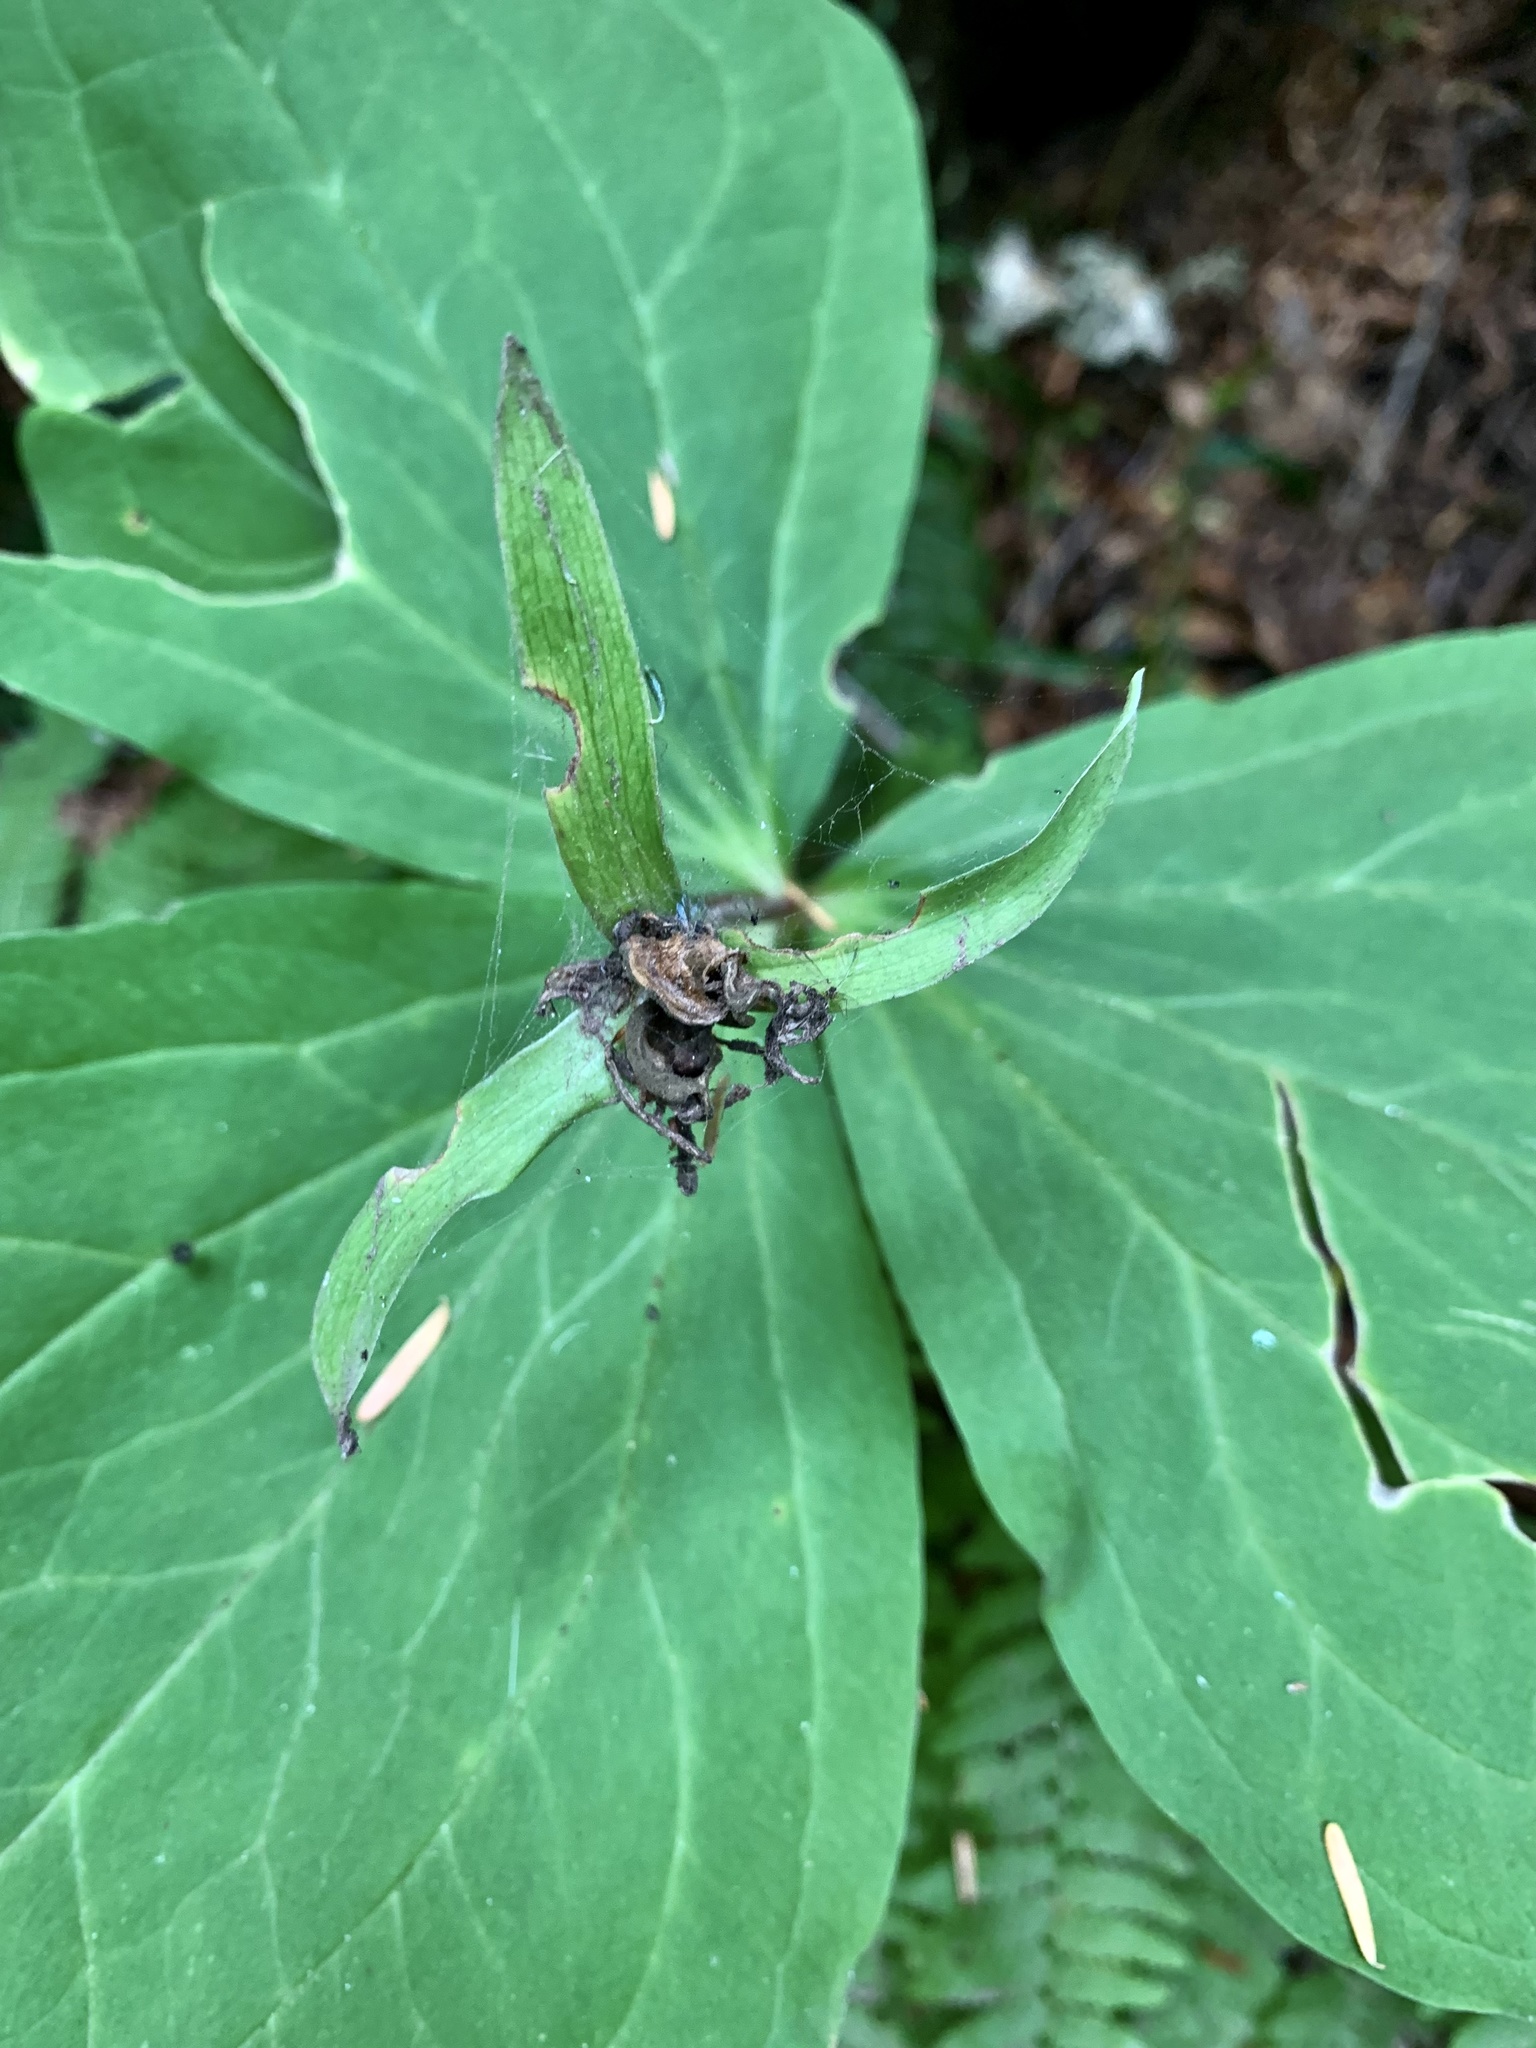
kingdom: Plantae
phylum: Tracheophyta
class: Liliopsida
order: Liliales
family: Melanthiaceae
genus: Trillium
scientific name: Trillium ovatum
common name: Pacific trillium
